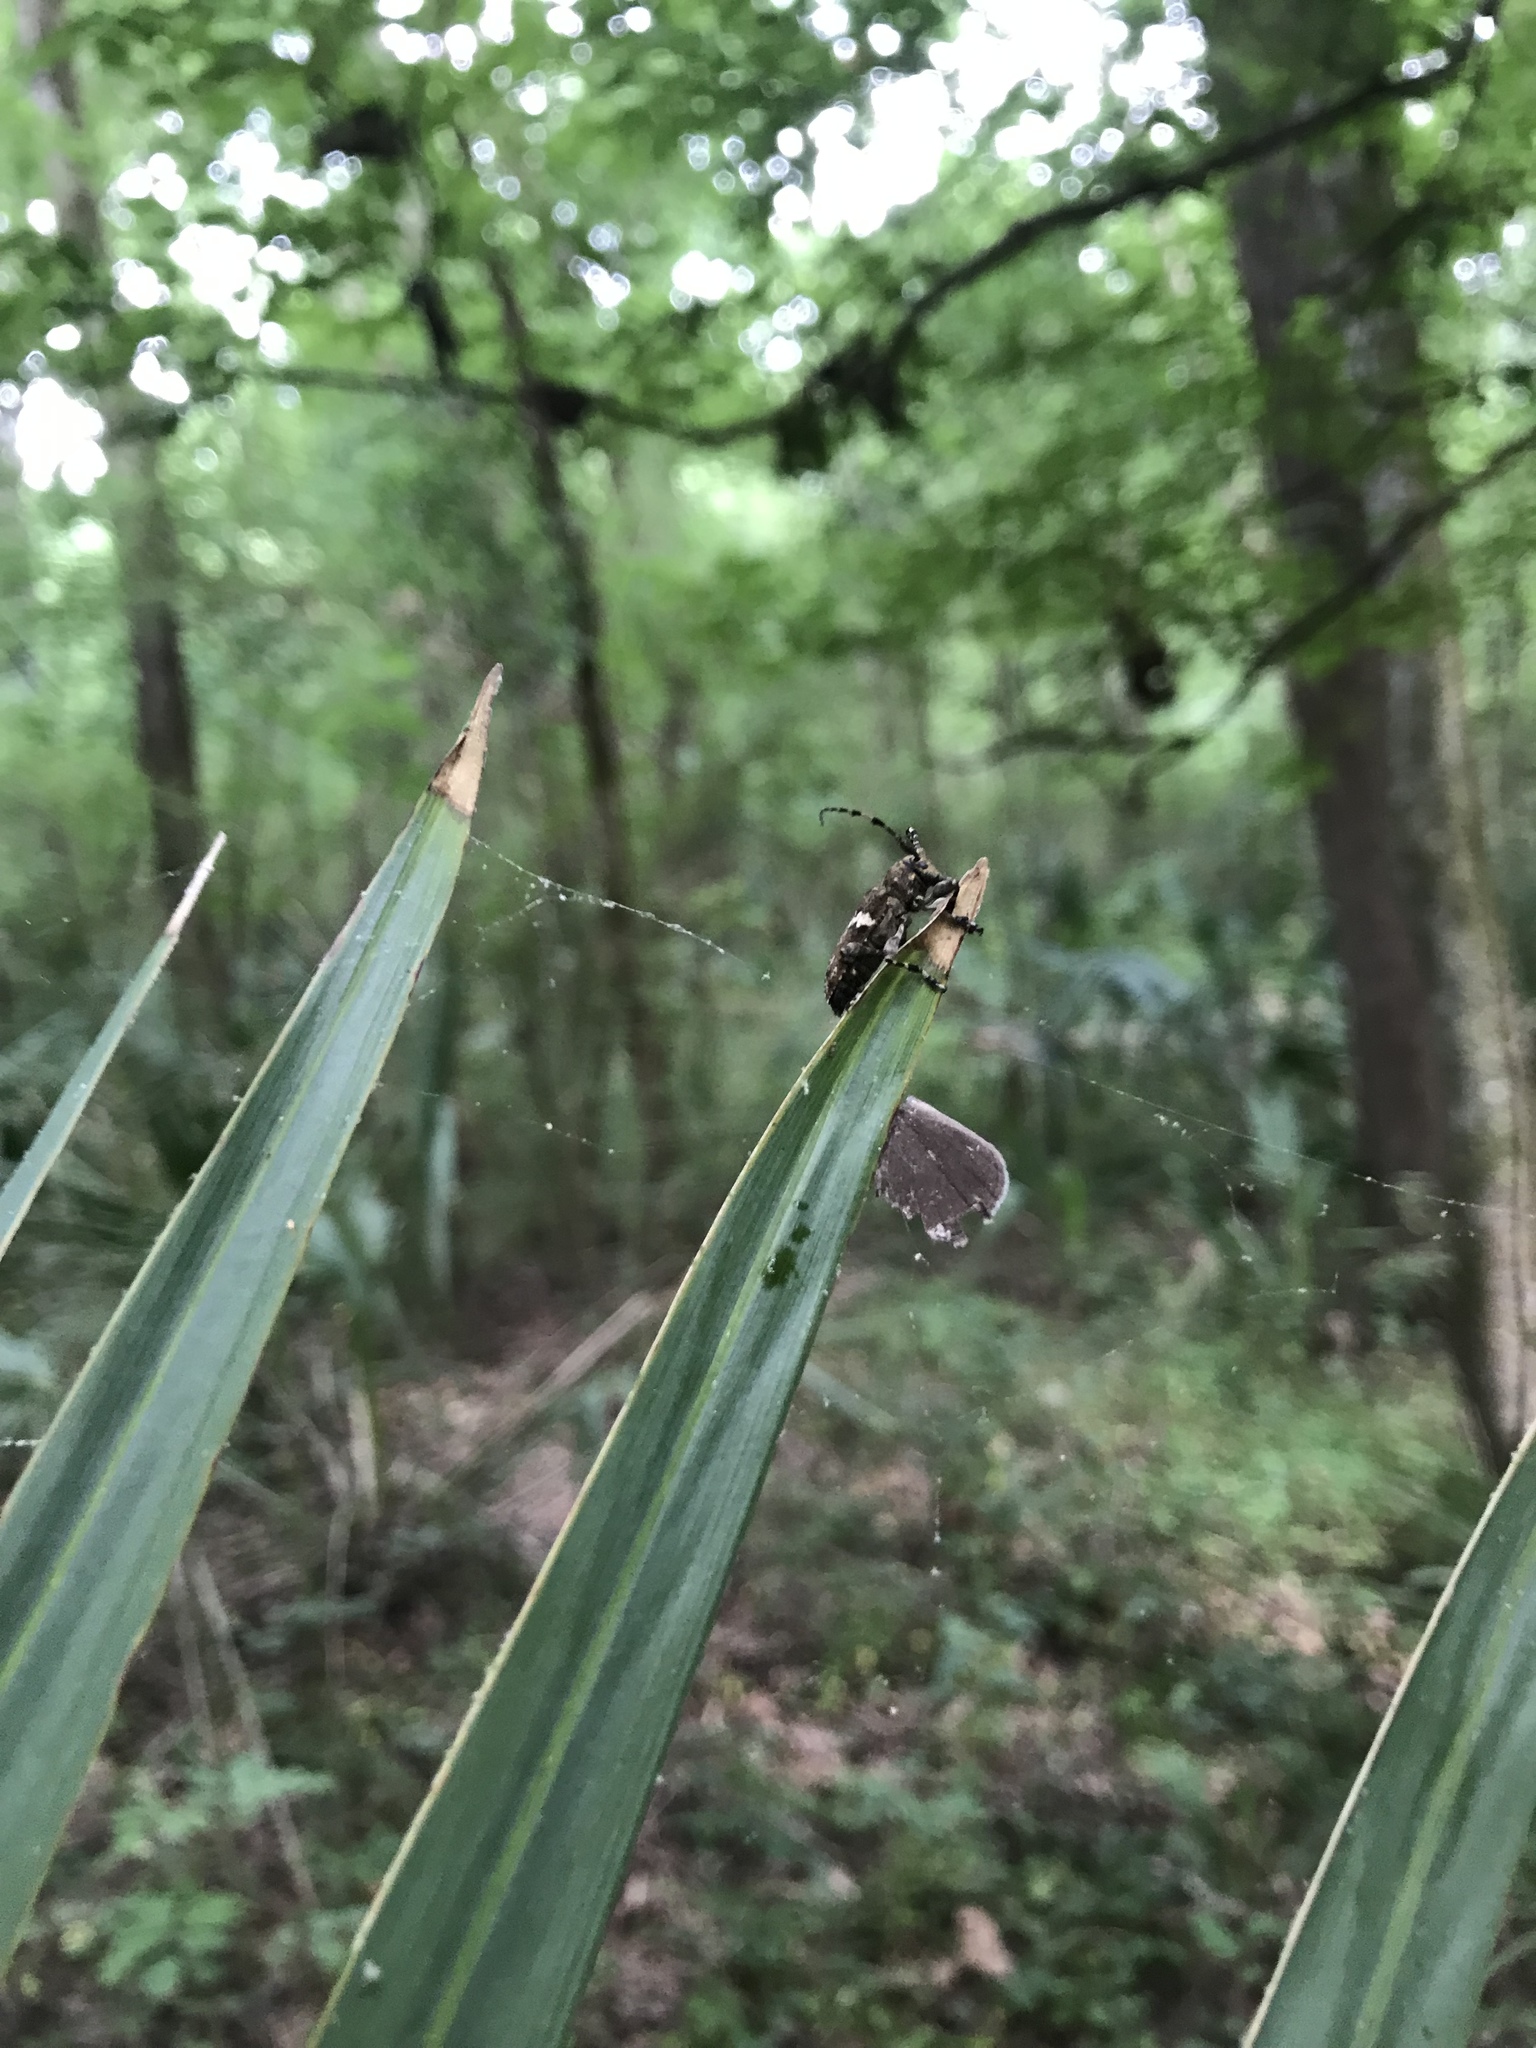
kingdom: Animalia
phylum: Arthropoda
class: Insecta
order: Coleoptera
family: Cerambycidae
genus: Acanthoderes
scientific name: Acanthoderes quadrigibba
